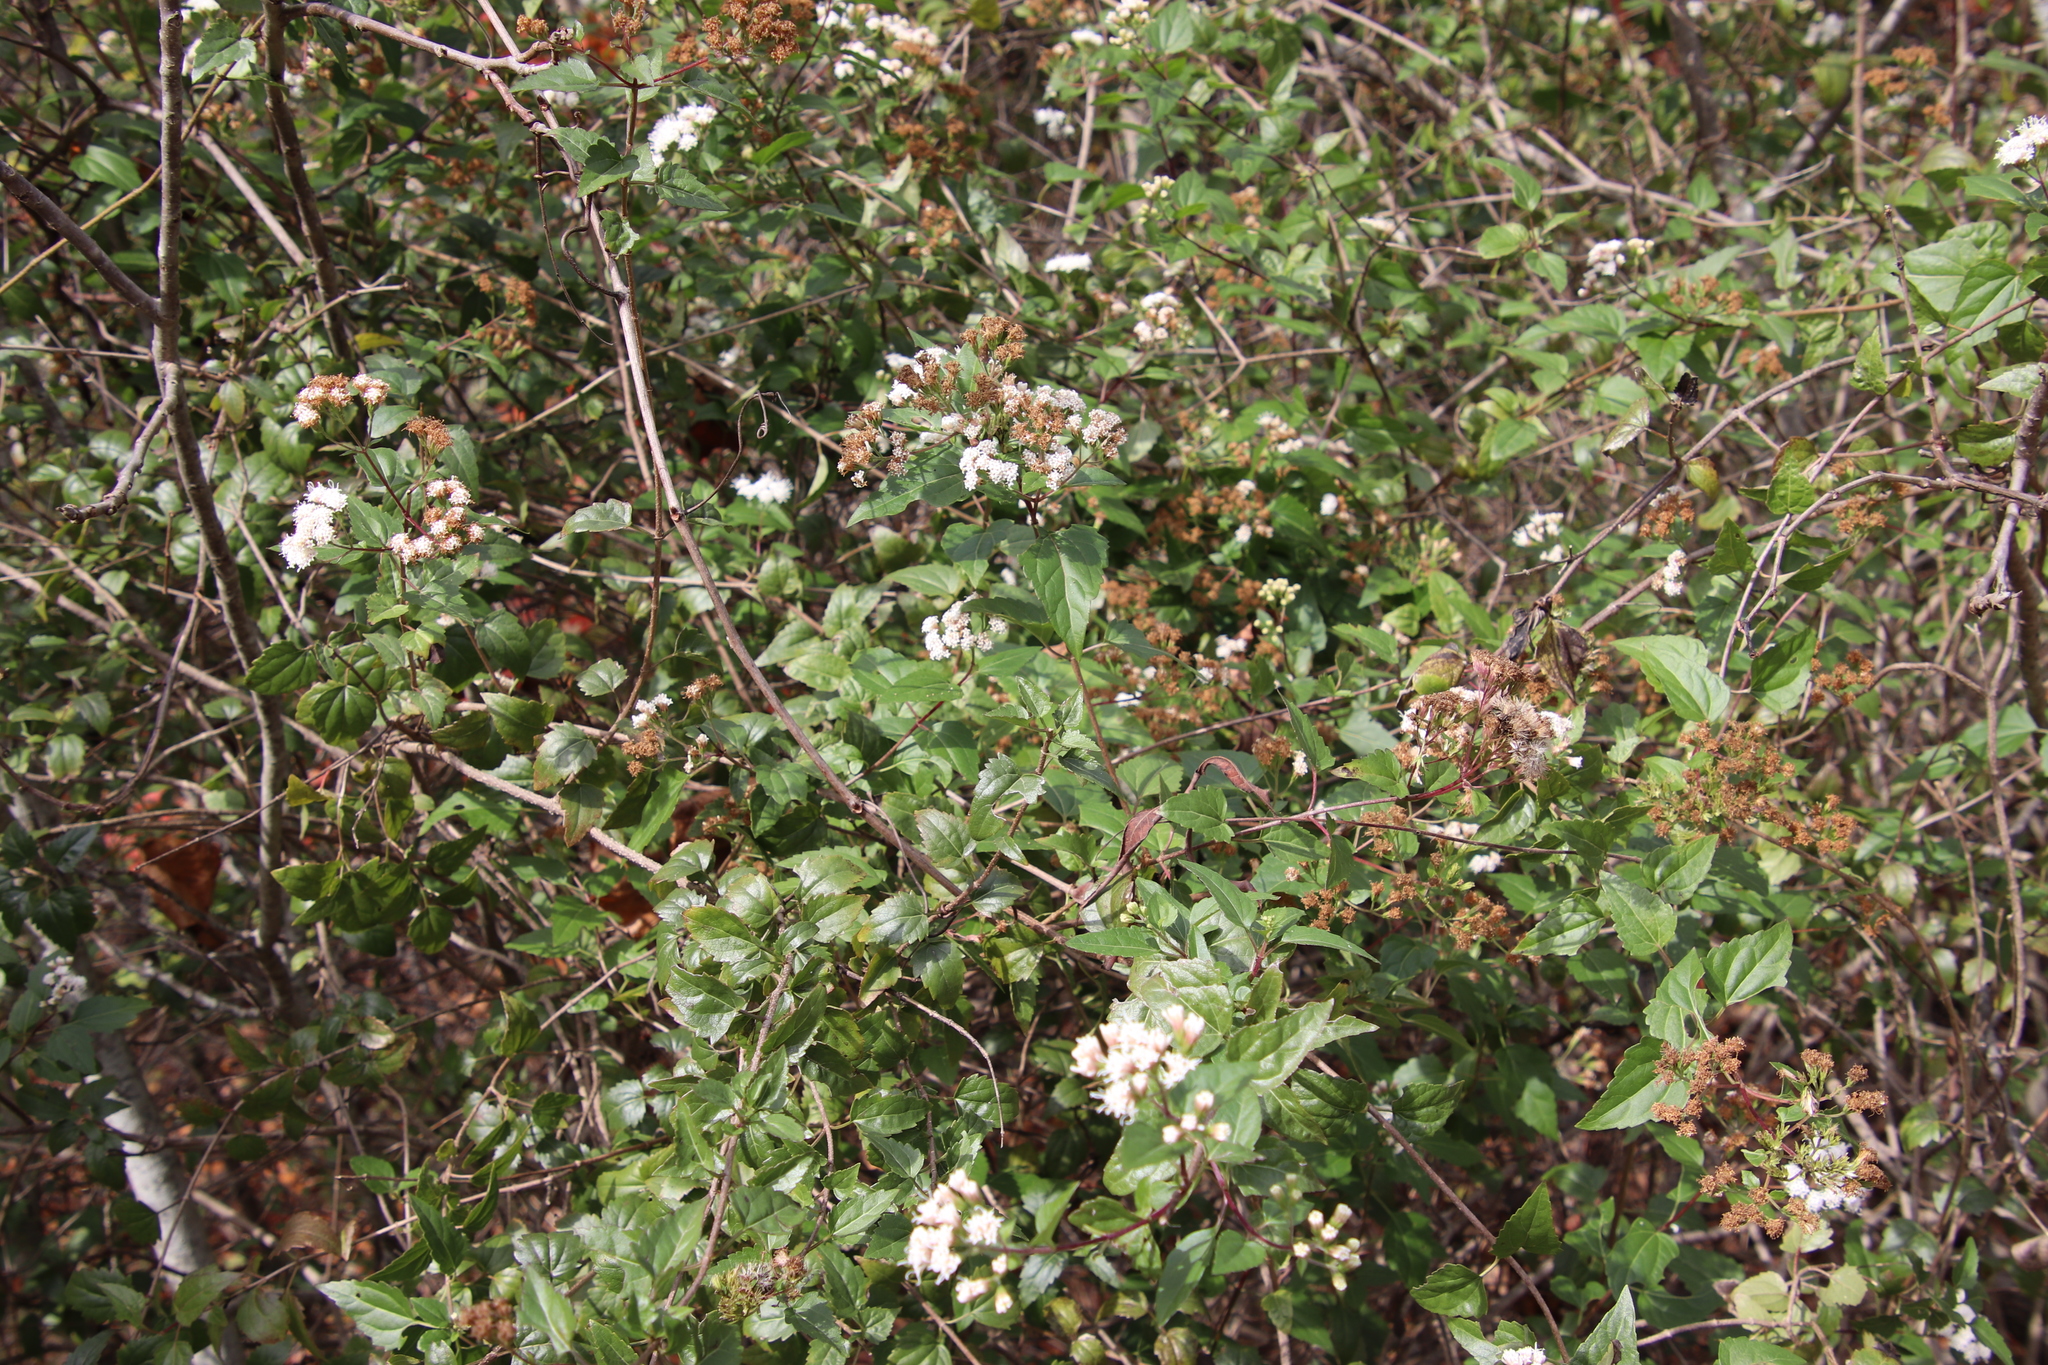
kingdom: Plantae
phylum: Tracheophyta
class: Magnoliopsida
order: Asterales
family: Asteraceae
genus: Ageratina
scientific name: Ageratina havanensis
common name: Havana snakeroot
